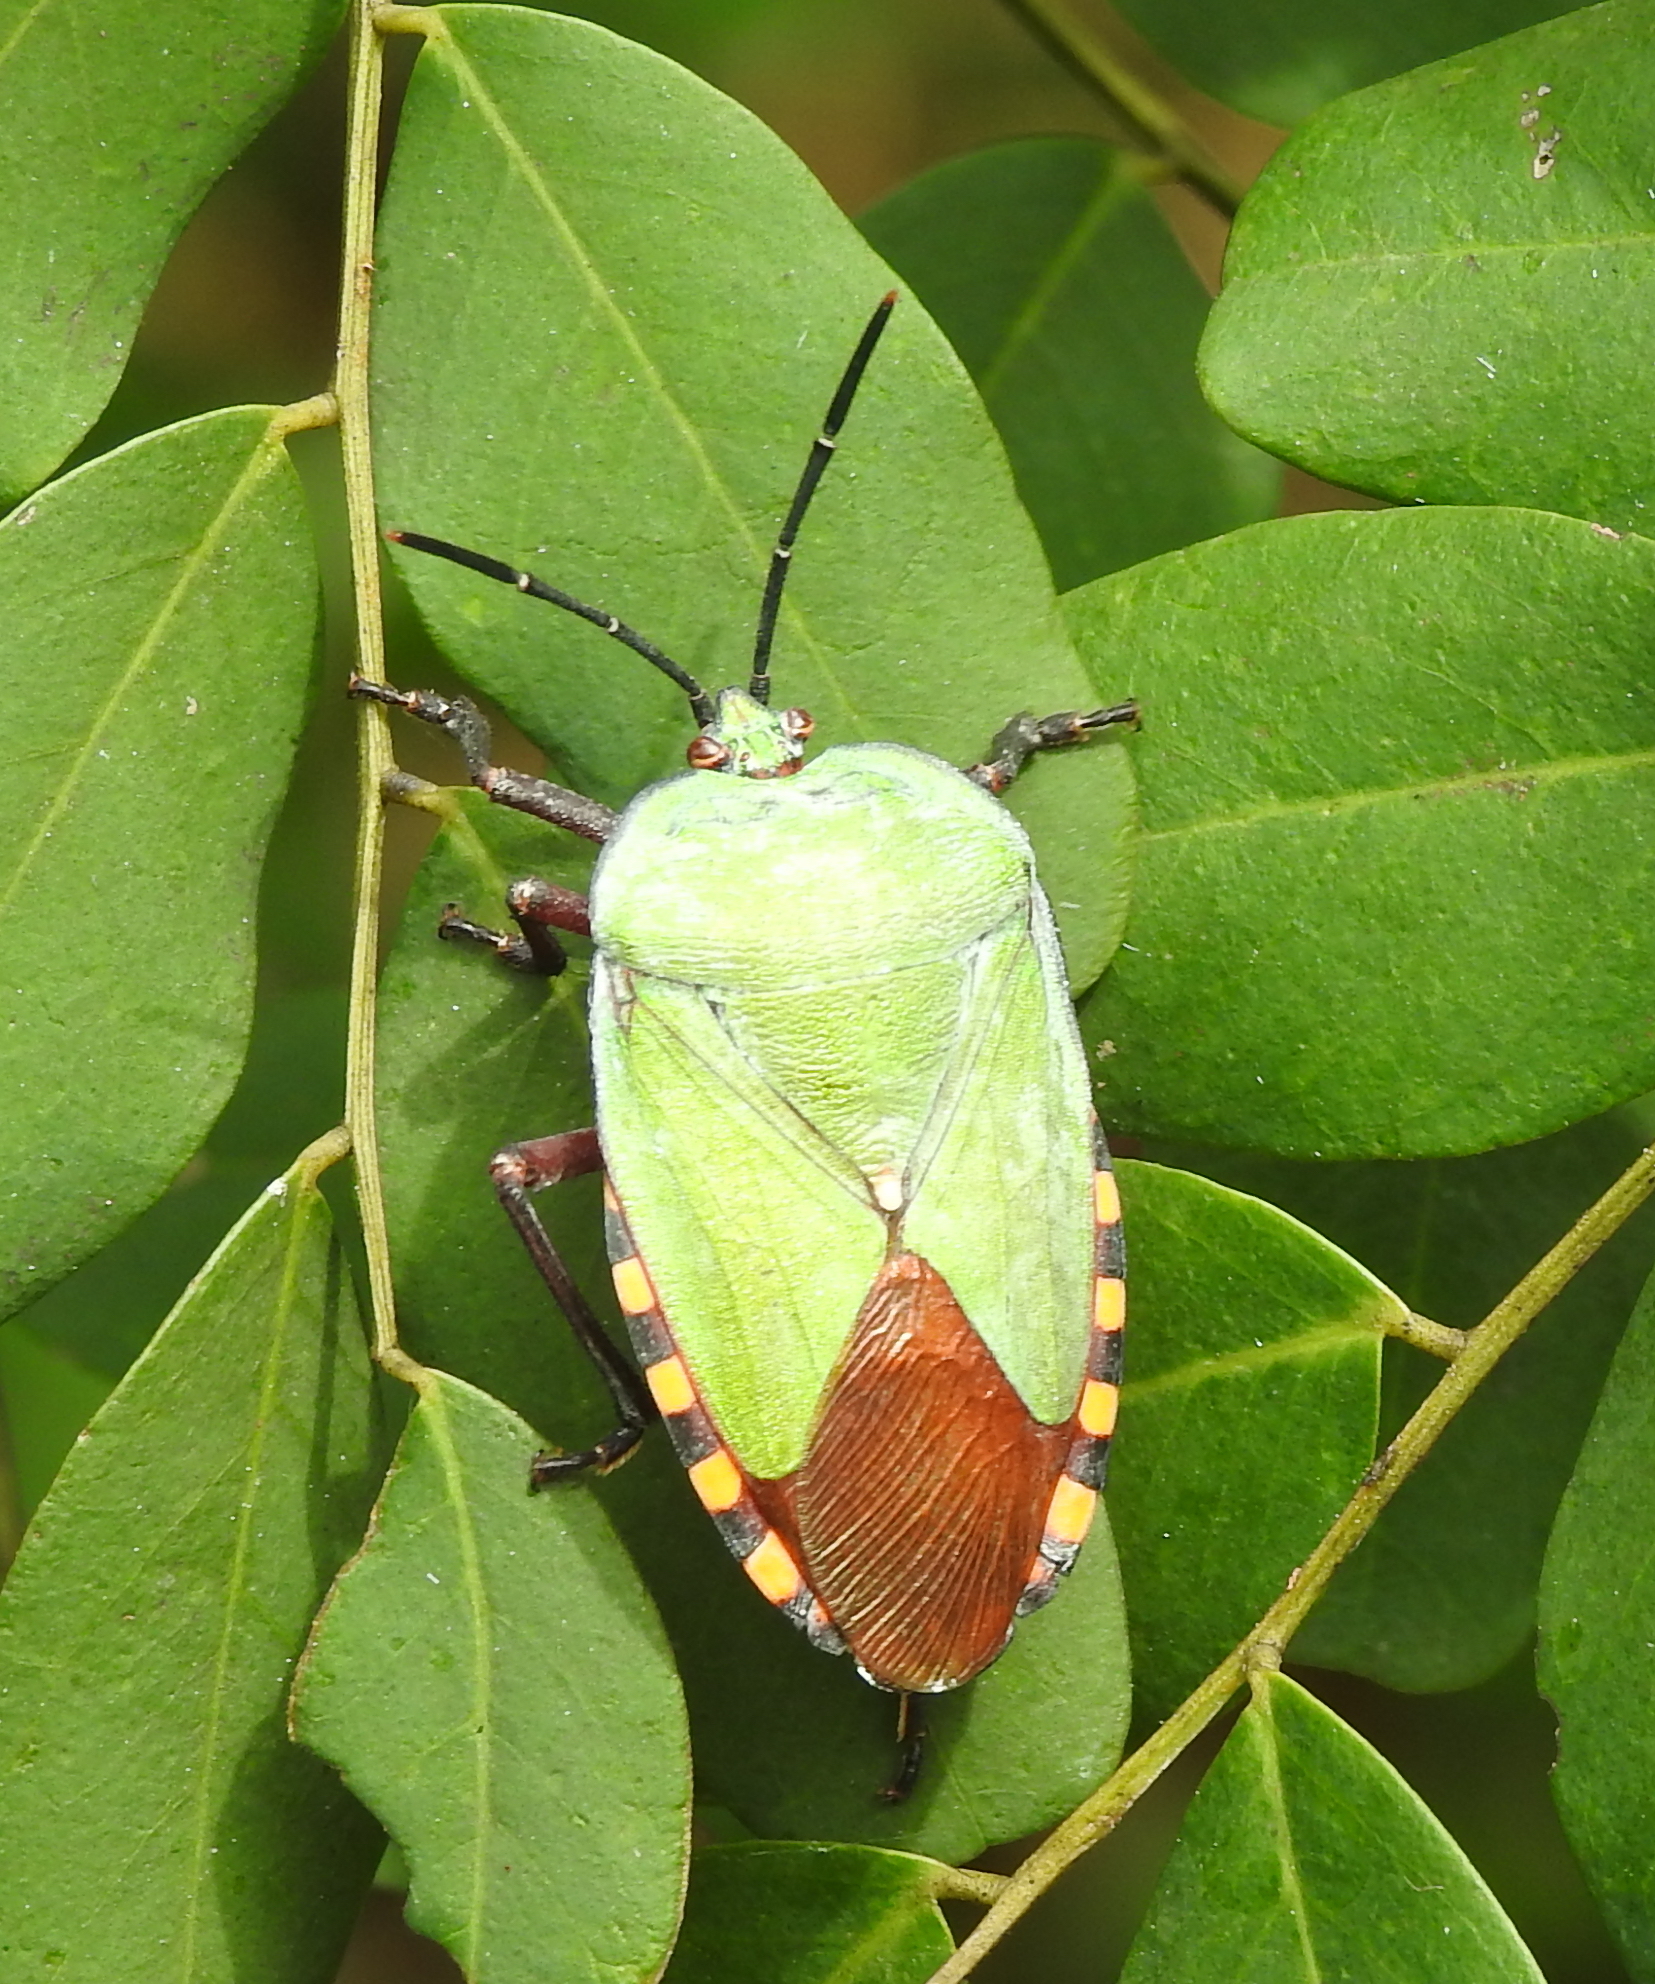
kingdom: Animalia
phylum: Arthropoda
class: Insecta
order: Hemiptera
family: Tessaratomidae
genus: Pycanum
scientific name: Pycanum alternatum
